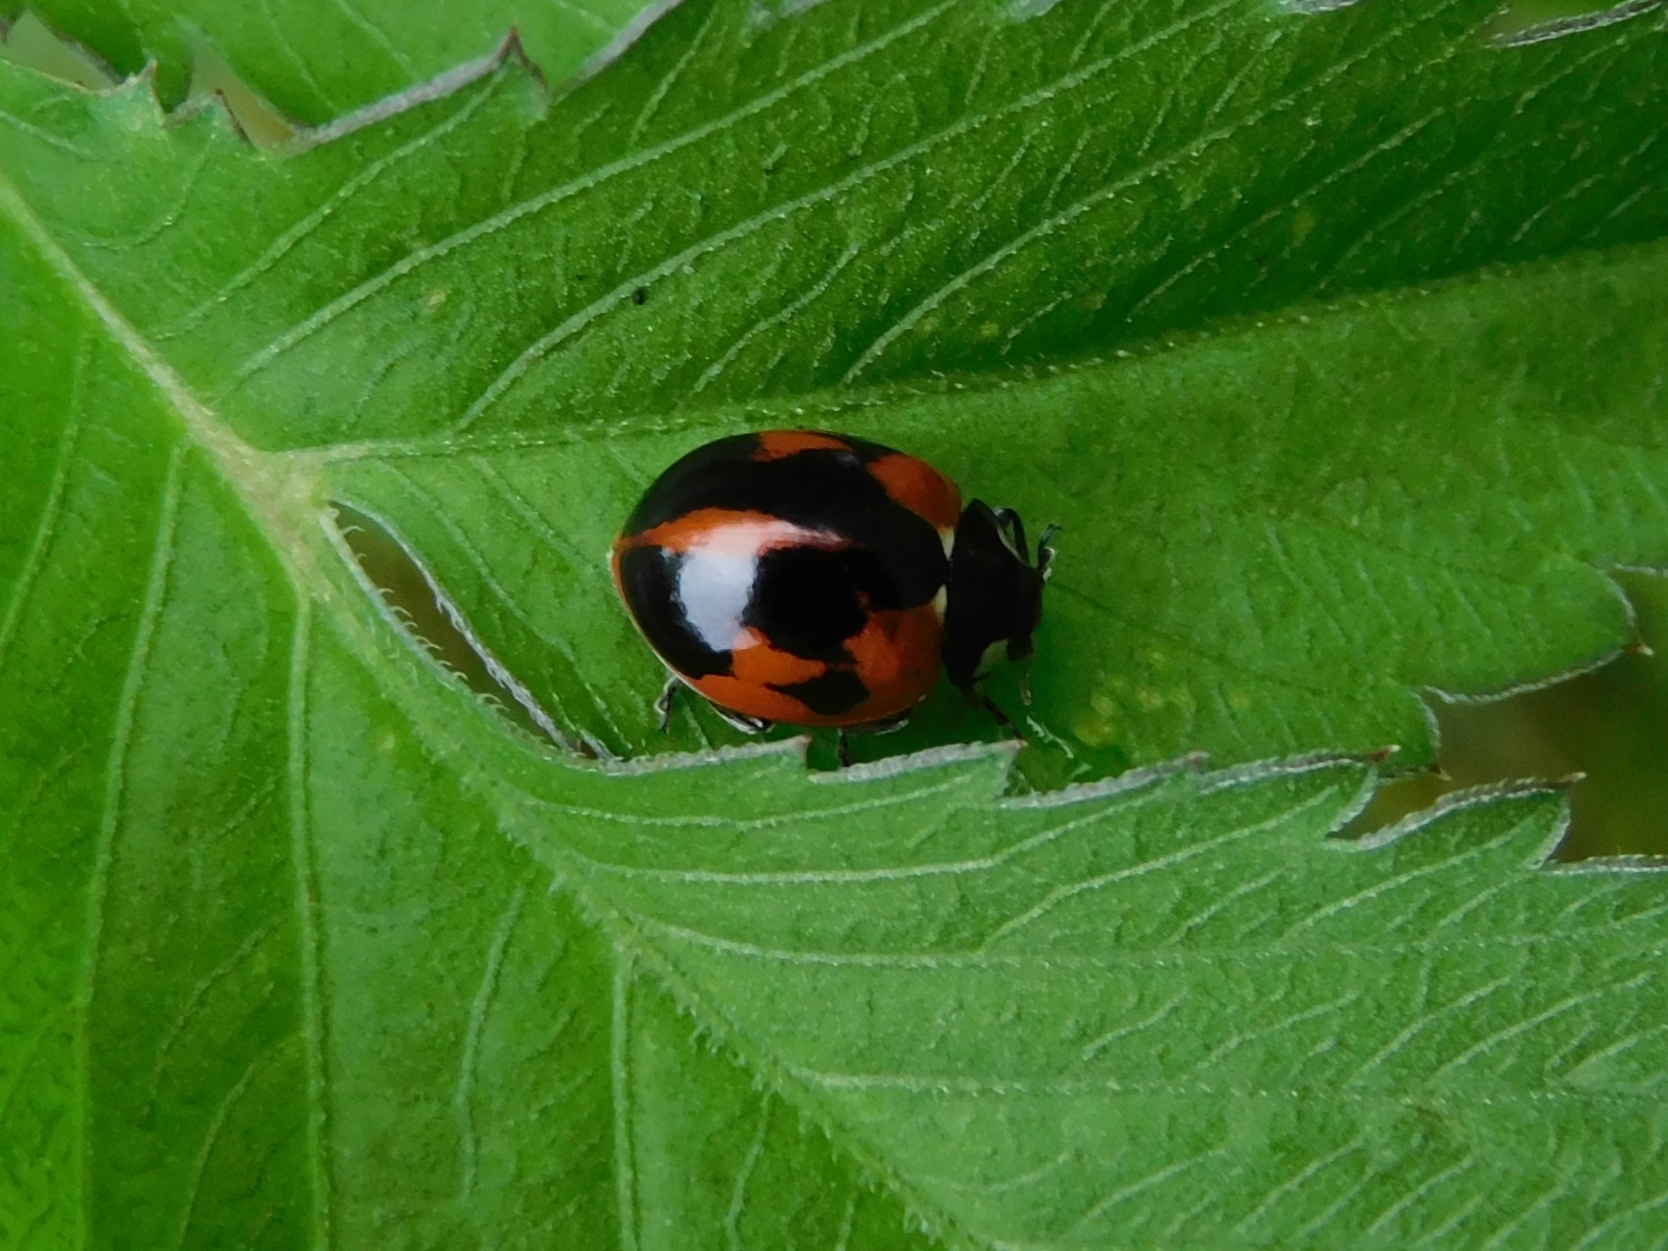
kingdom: Animalia
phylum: Arthropoda
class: Insecta
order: Coleoptera
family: Coccinellidae
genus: Coccinella
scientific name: Coccinella septempunctata
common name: Sevenspotted lady beetle
